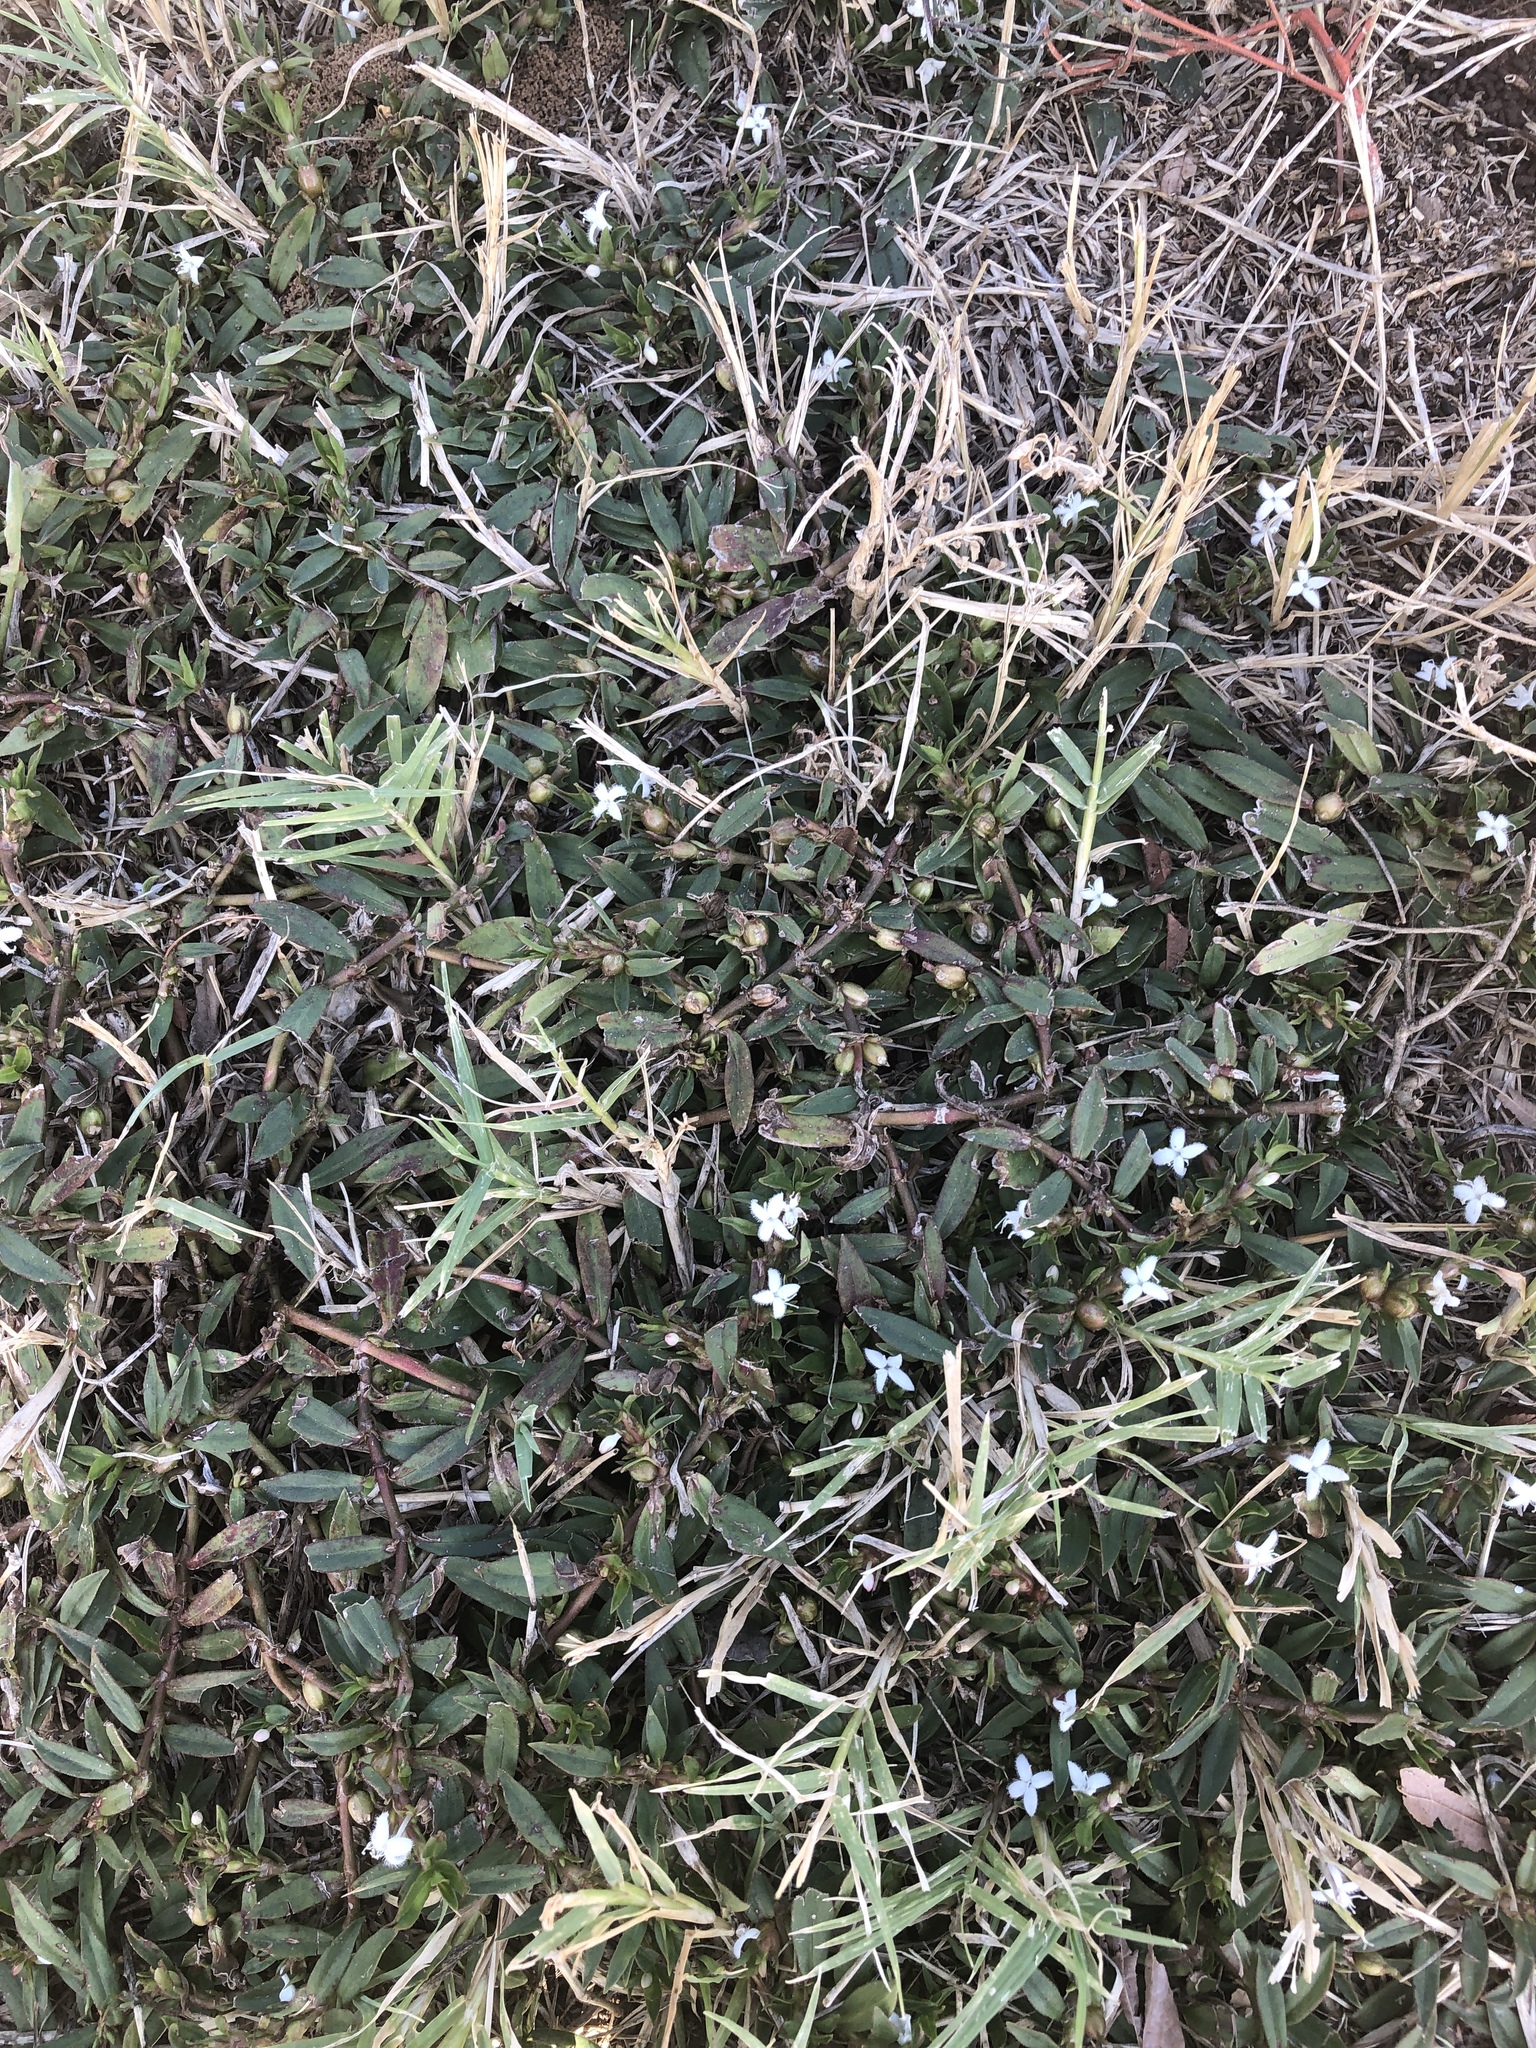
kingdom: Plantae
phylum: Tracheophyta
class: Magnoliopsida
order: Gentianales
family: Rubiaceae
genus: Diodia
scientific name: Diodia virginiana
